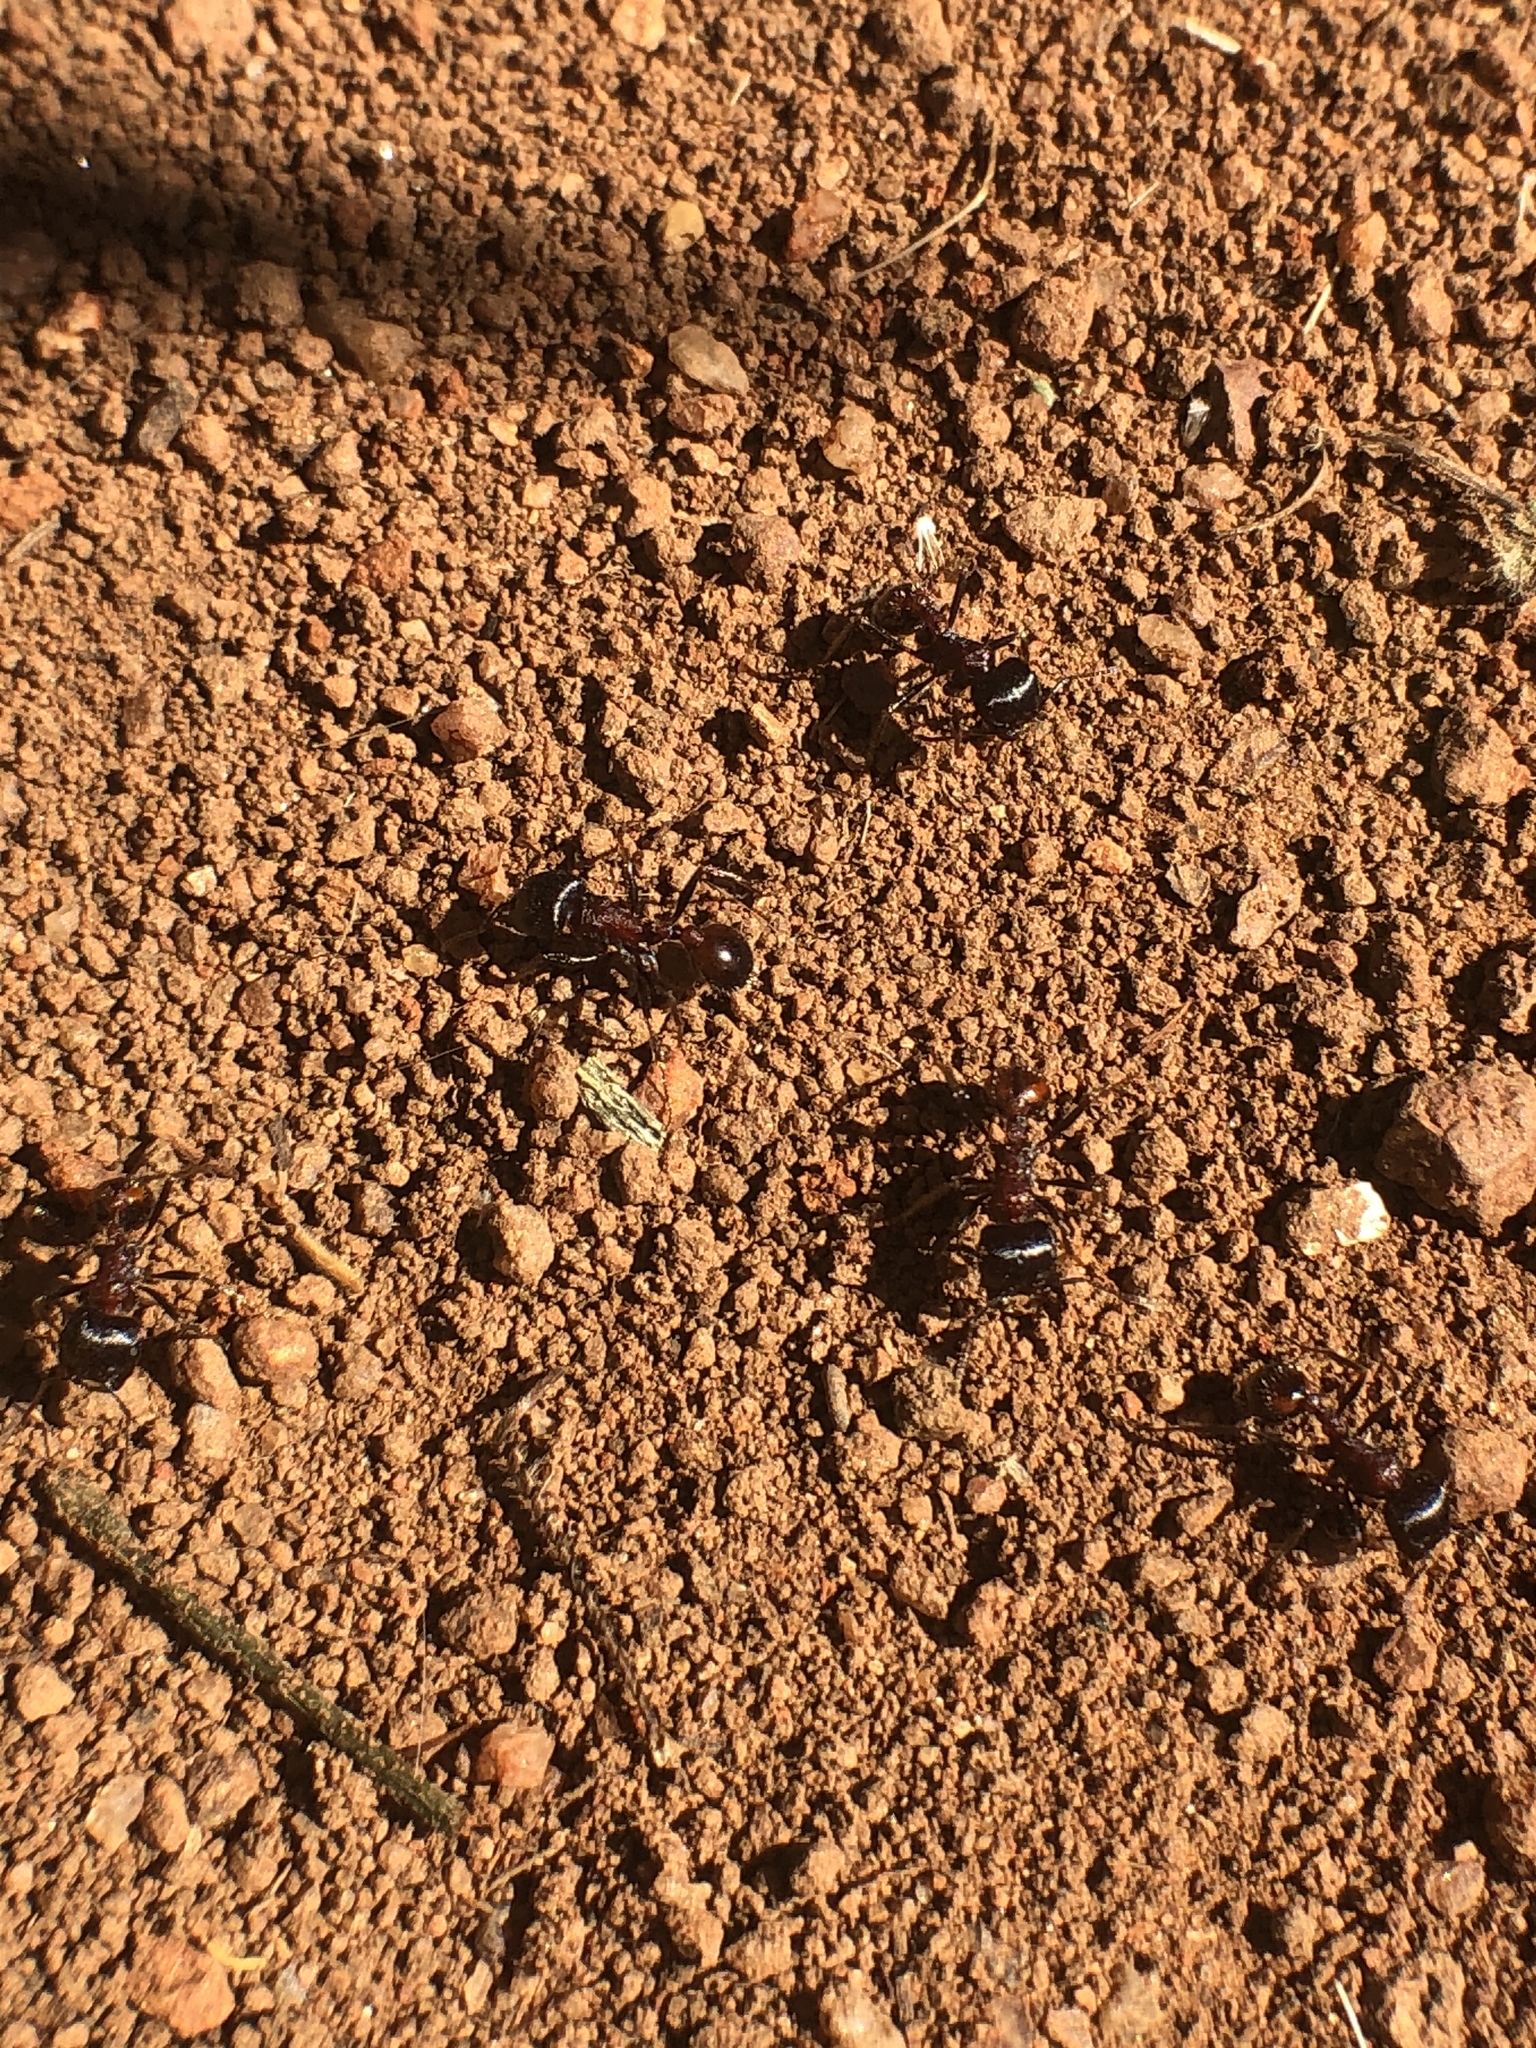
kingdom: Animalia
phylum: Arthropoda
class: Insecta
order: Hymenoptera
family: Formicidae
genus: Pogonomyrmex
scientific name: Pogonomyrmex rugosus
